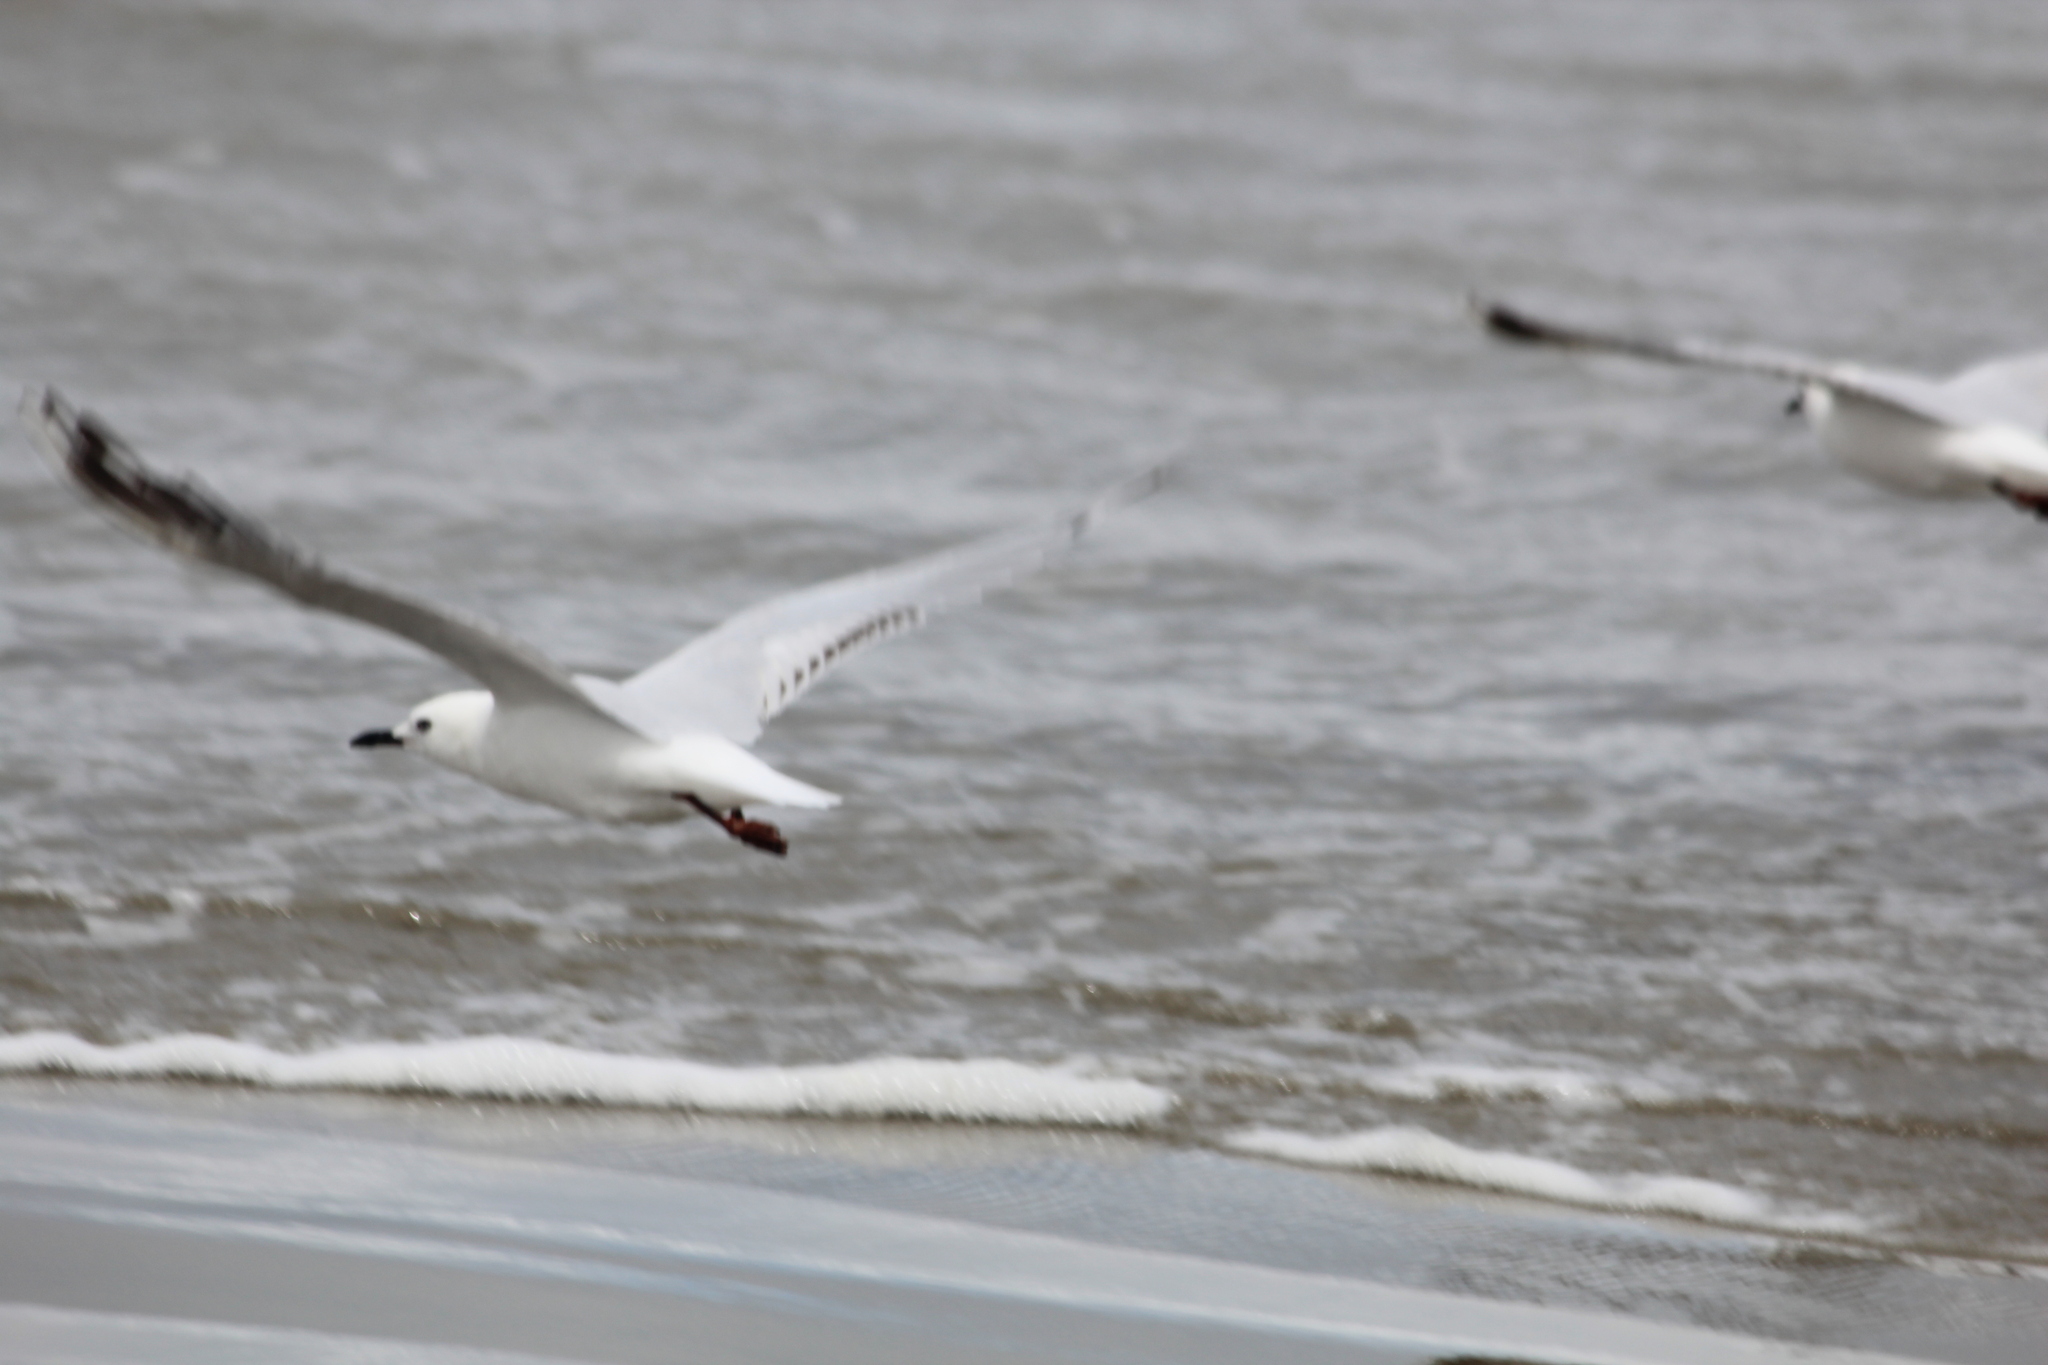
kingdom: Animalia
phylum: Chordata
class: Aves
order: Charadriiformes
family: Laridae
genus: Chroicocephalus
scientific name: Chroicocephalus bulleri
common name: Black-billed gull
